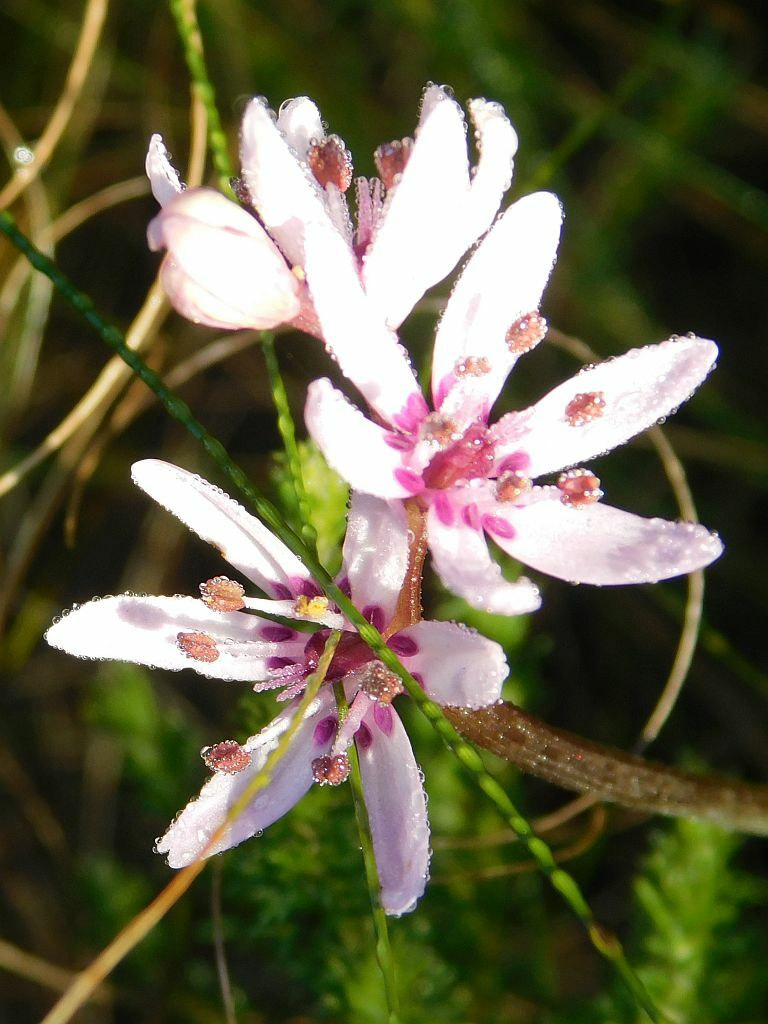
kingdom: Plantae
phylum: Tracheophyta
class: Liliopsida
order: Liliales
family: Colchicaceae
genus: Wurmbea
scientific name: Wurmbea punctata
